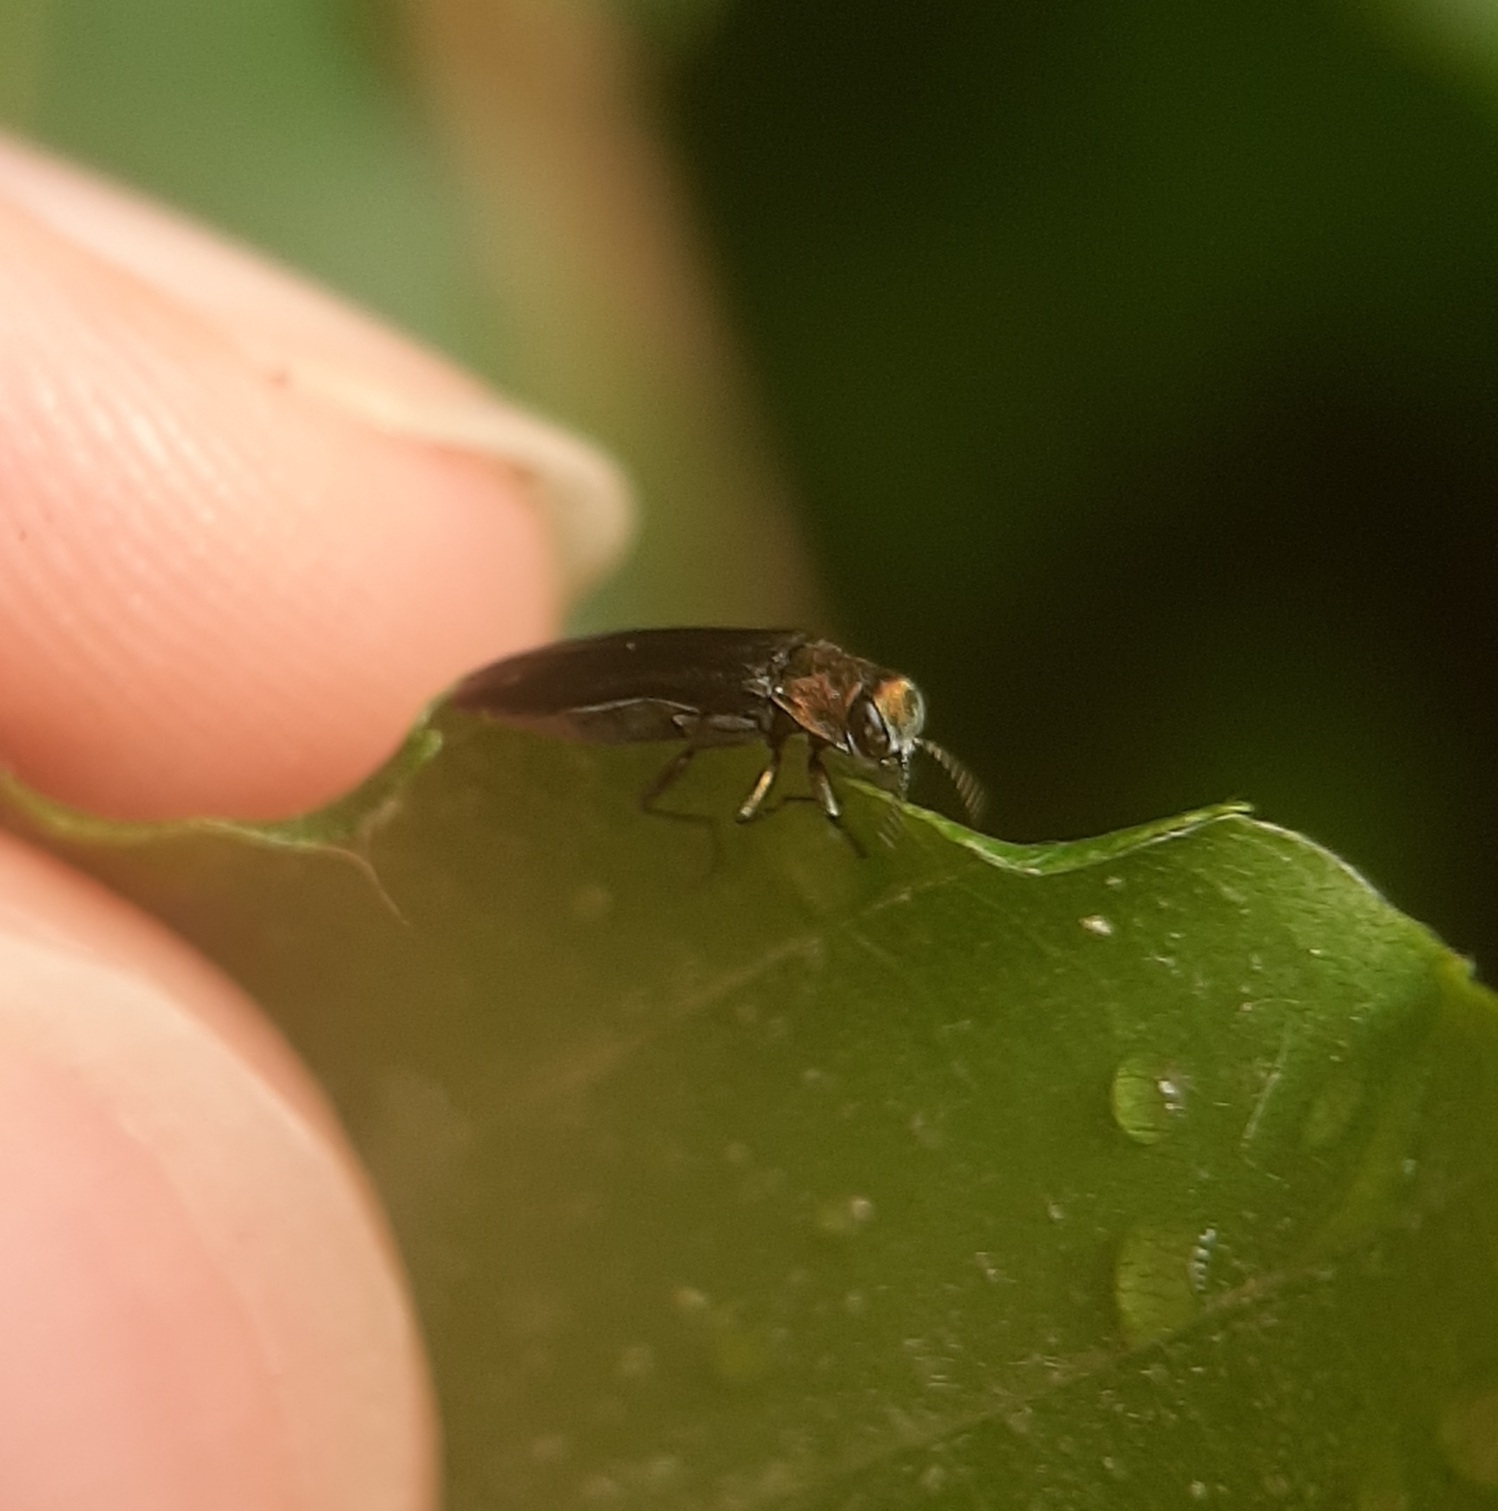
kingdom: Animalia
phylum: Arthropoda
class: Insecta
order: Coleoptera
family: Buprestidae
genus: Agrilus
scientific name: Agrilus anxius
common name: Bronze birch borer
